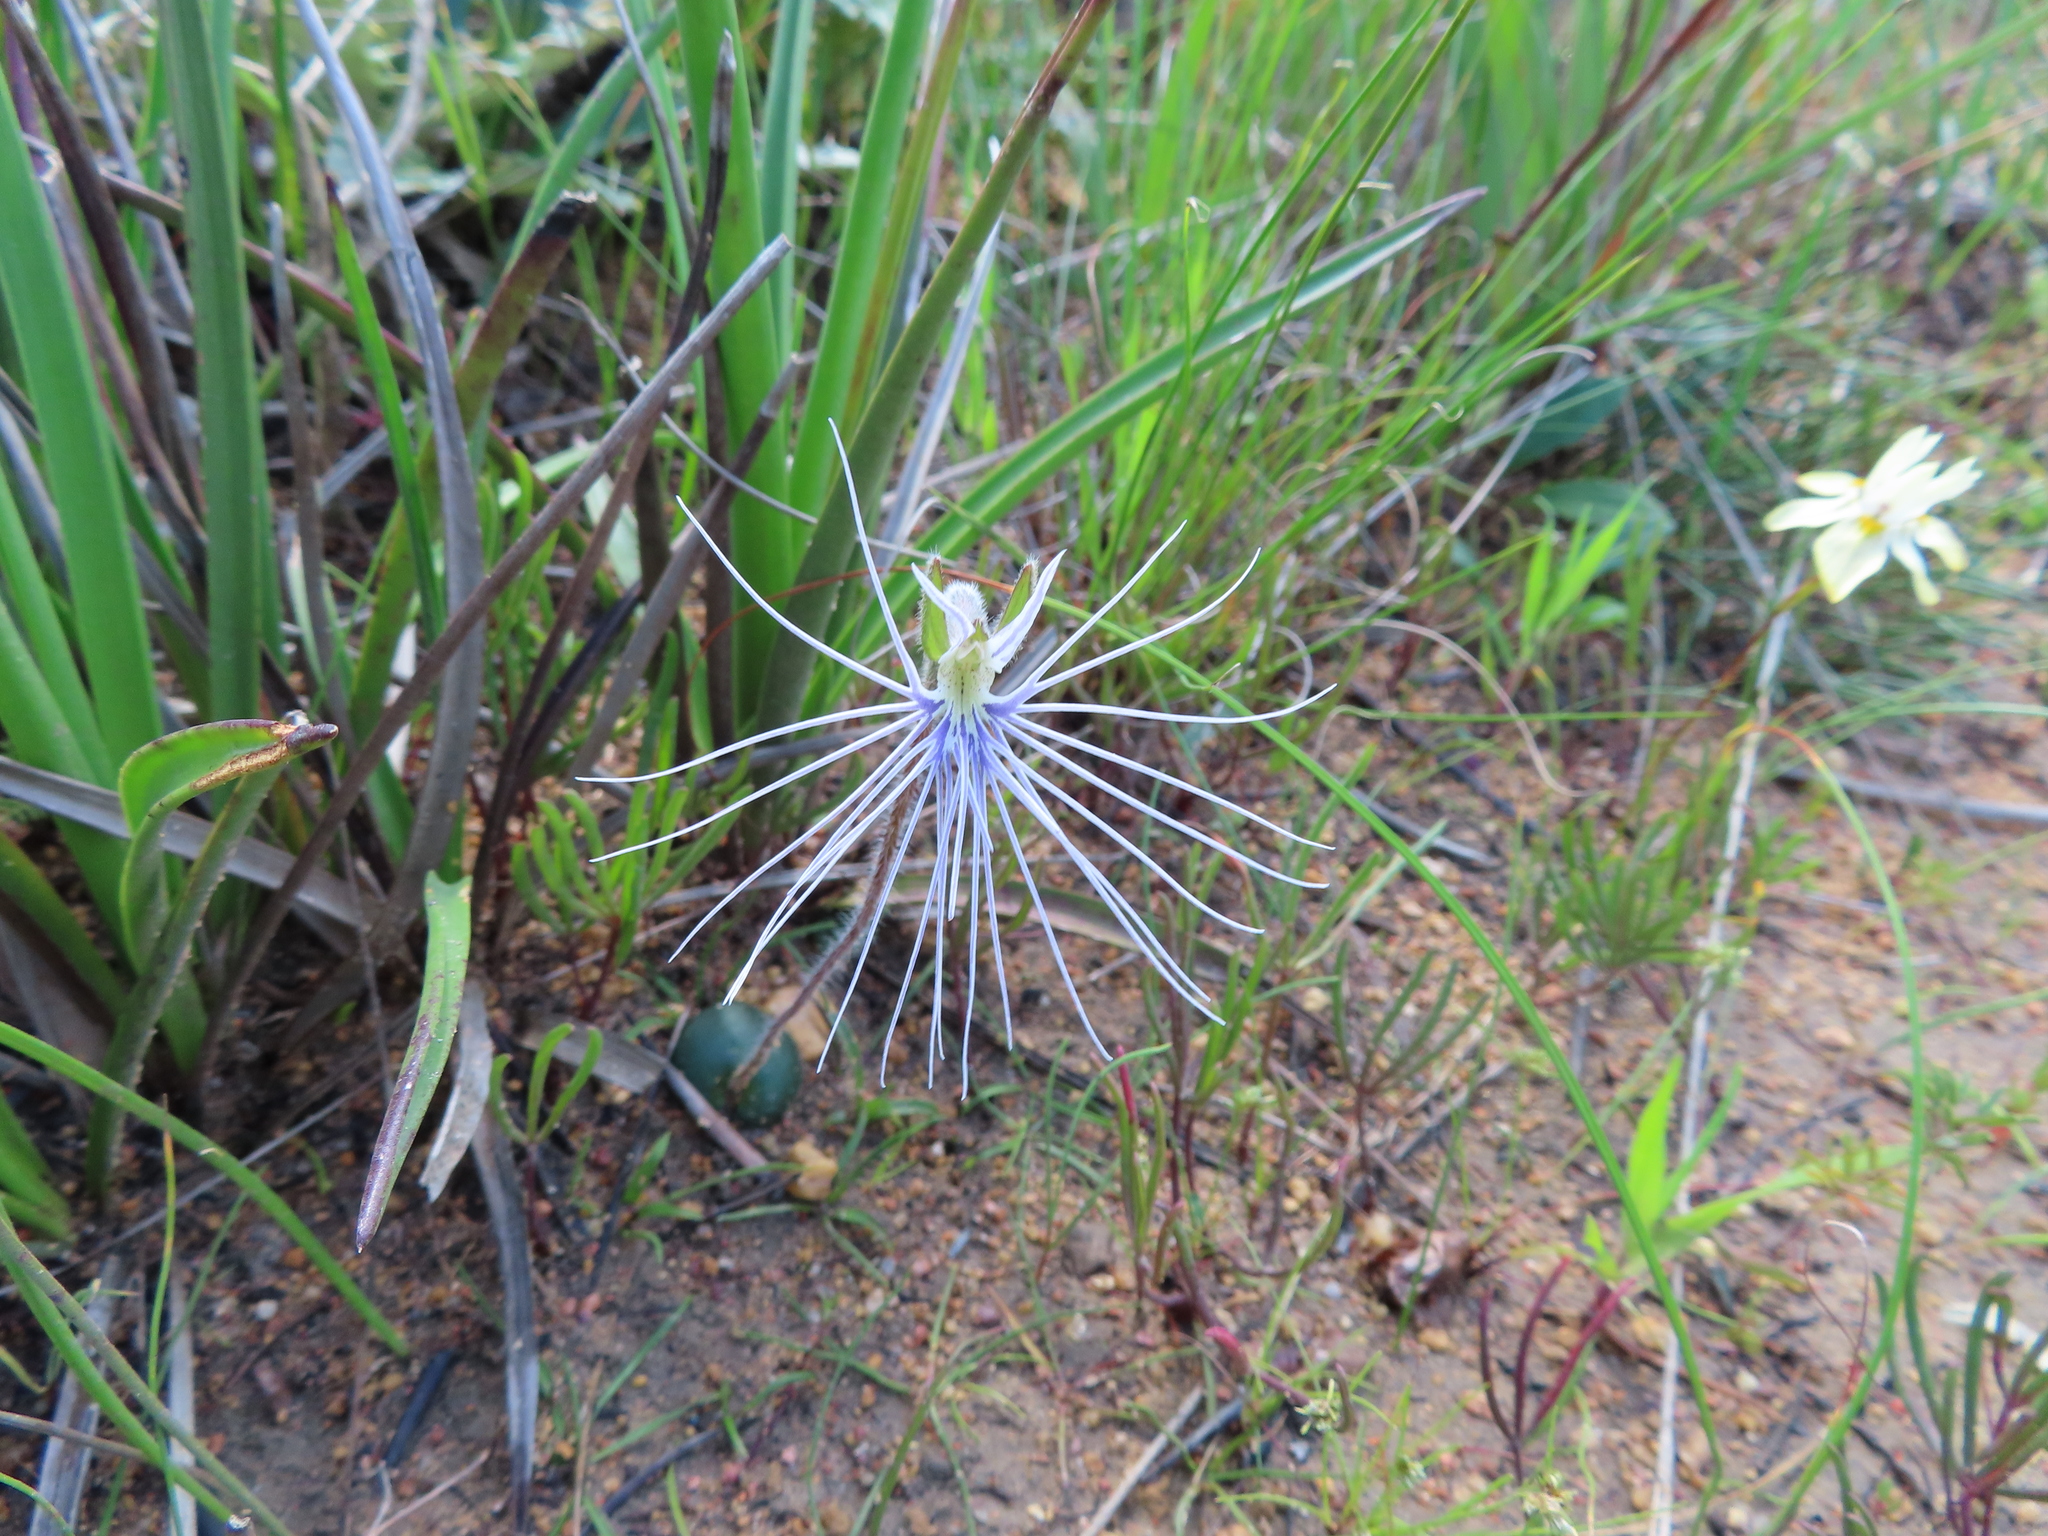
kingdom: Plantae
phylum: Tracheophyta
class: Liliopsida
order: Asparagales
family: Orchidaceae
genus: Holothrix
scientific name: Holothrix burmanniana
